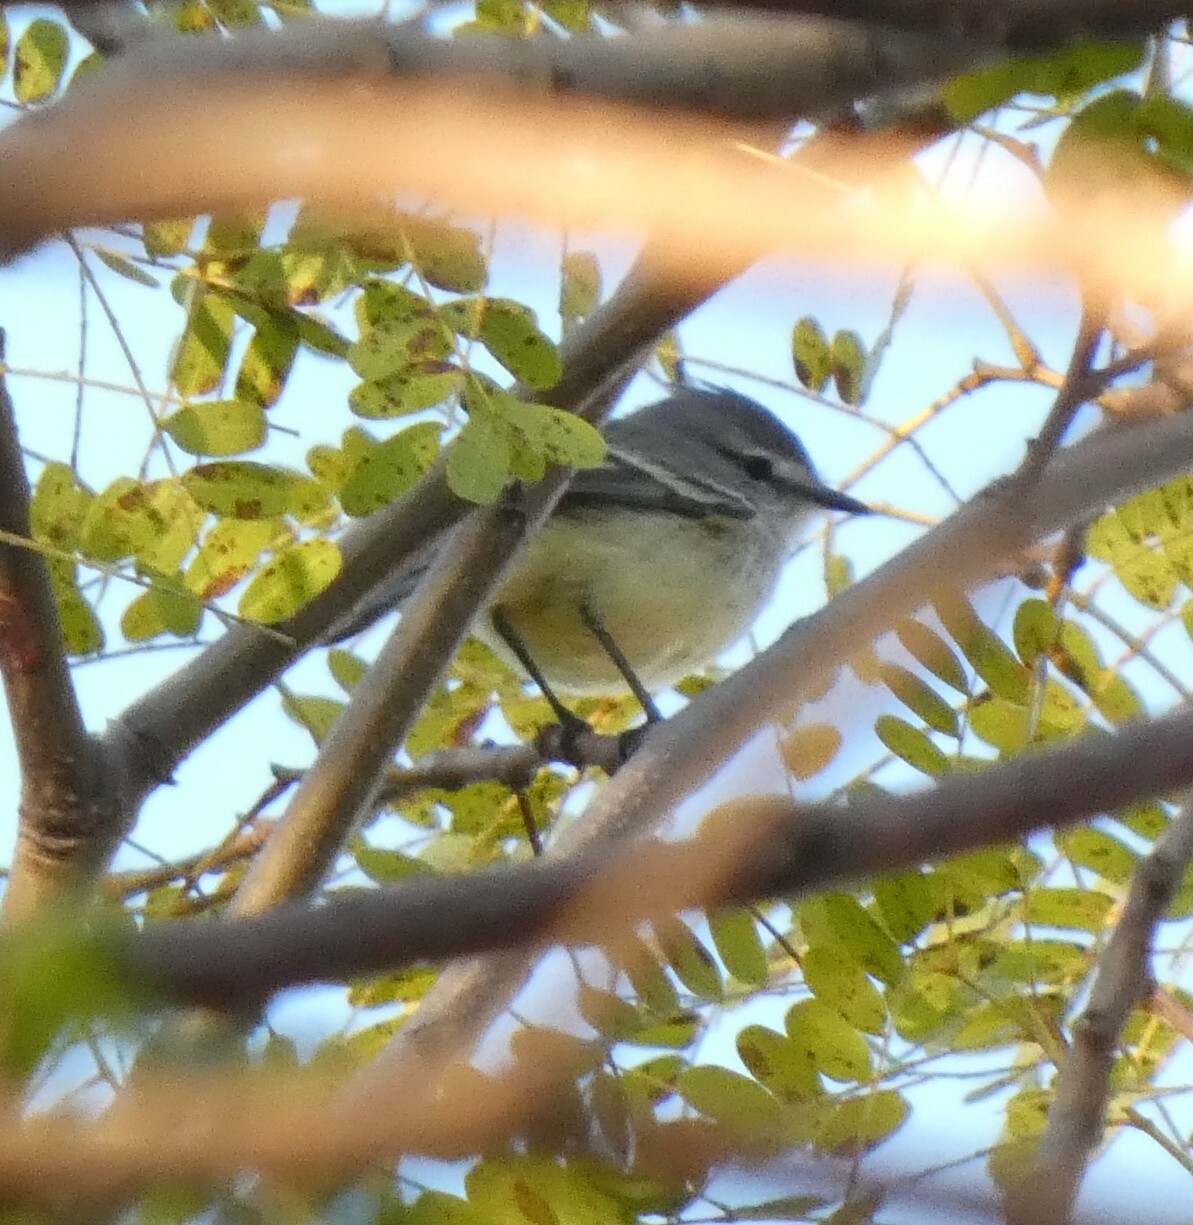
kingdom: Animalia
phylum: Chordata
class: Aves
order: Passeriformes
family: Tyrannidae
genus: Serpophaga
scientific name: Serpophaga subcristata
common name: White-crested tyrannulet
